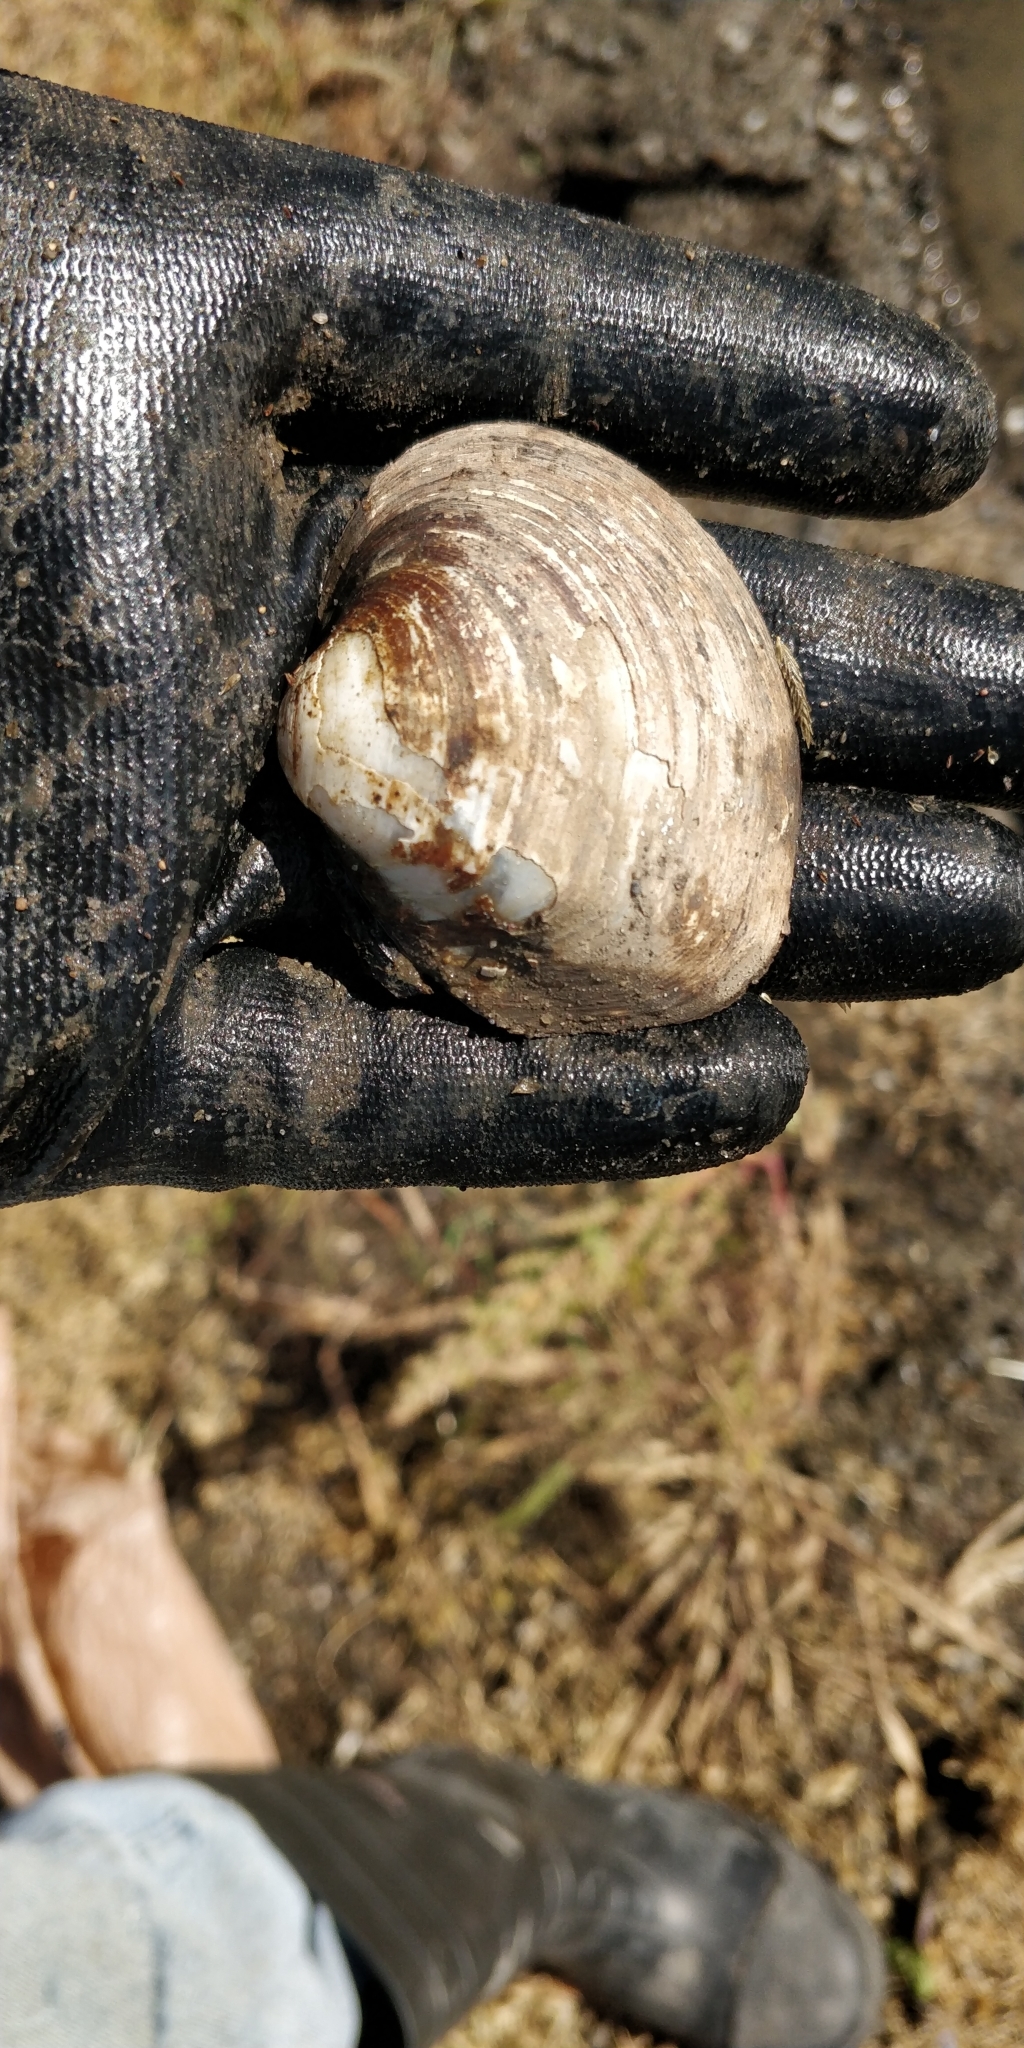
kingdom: Animalia
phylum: Mollusca
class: Bivalvia
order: Unionida
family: Unionidae
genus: Cyclonaias
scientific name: Cyclonaias pustulosa
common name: Pimpleback
